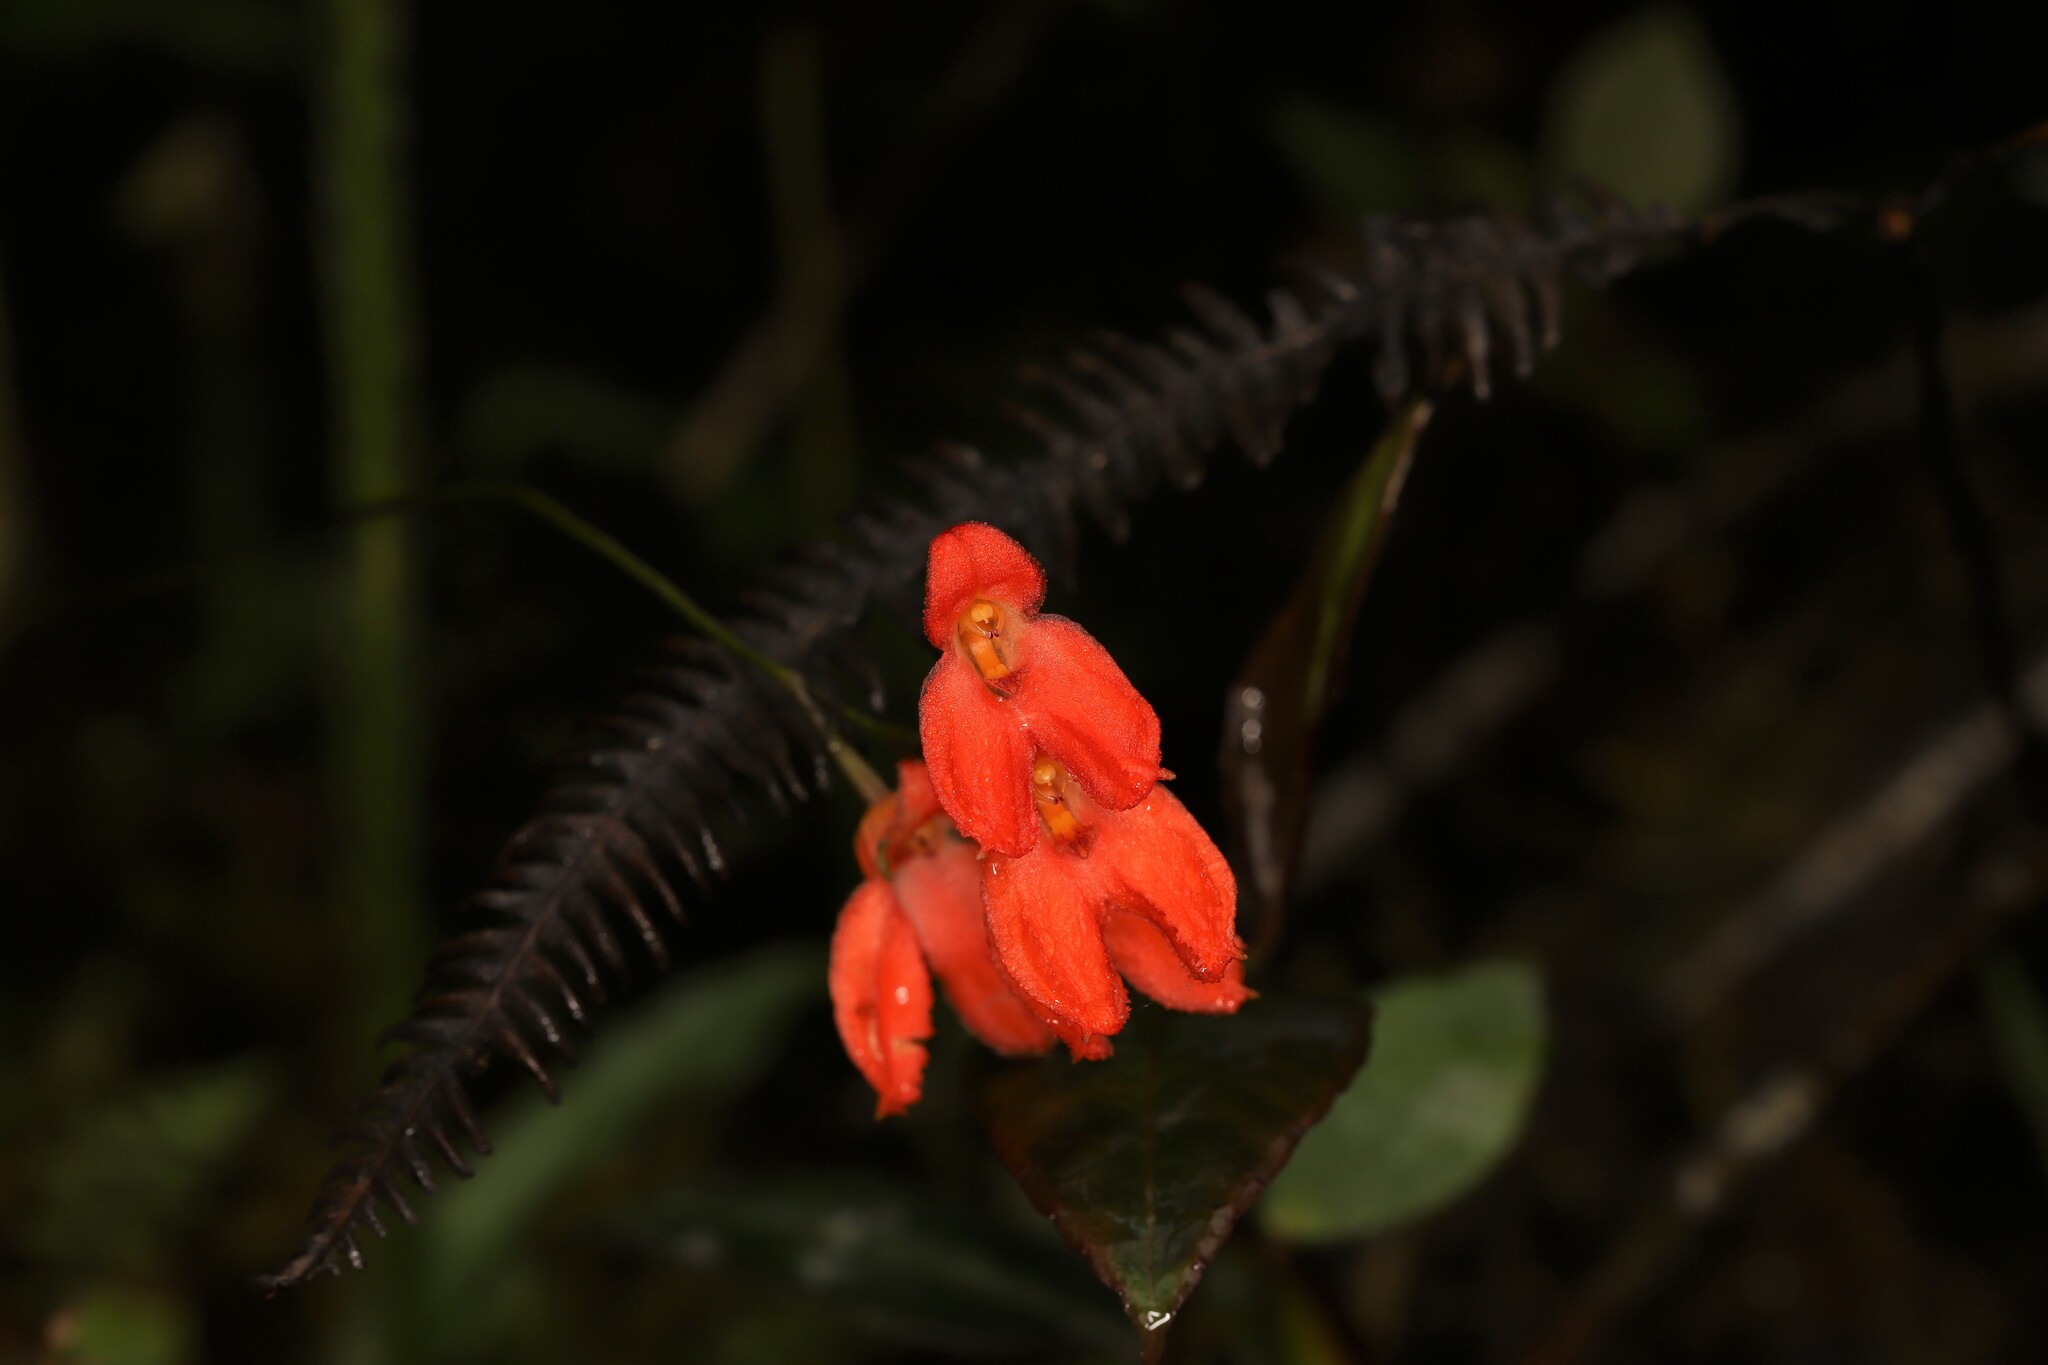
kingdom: Plantae
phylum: Tracheophyta
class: Liliopsida
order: Asparagales
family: Orchidaceae
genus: Porroglossum
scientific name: Porroglossum eduardi
